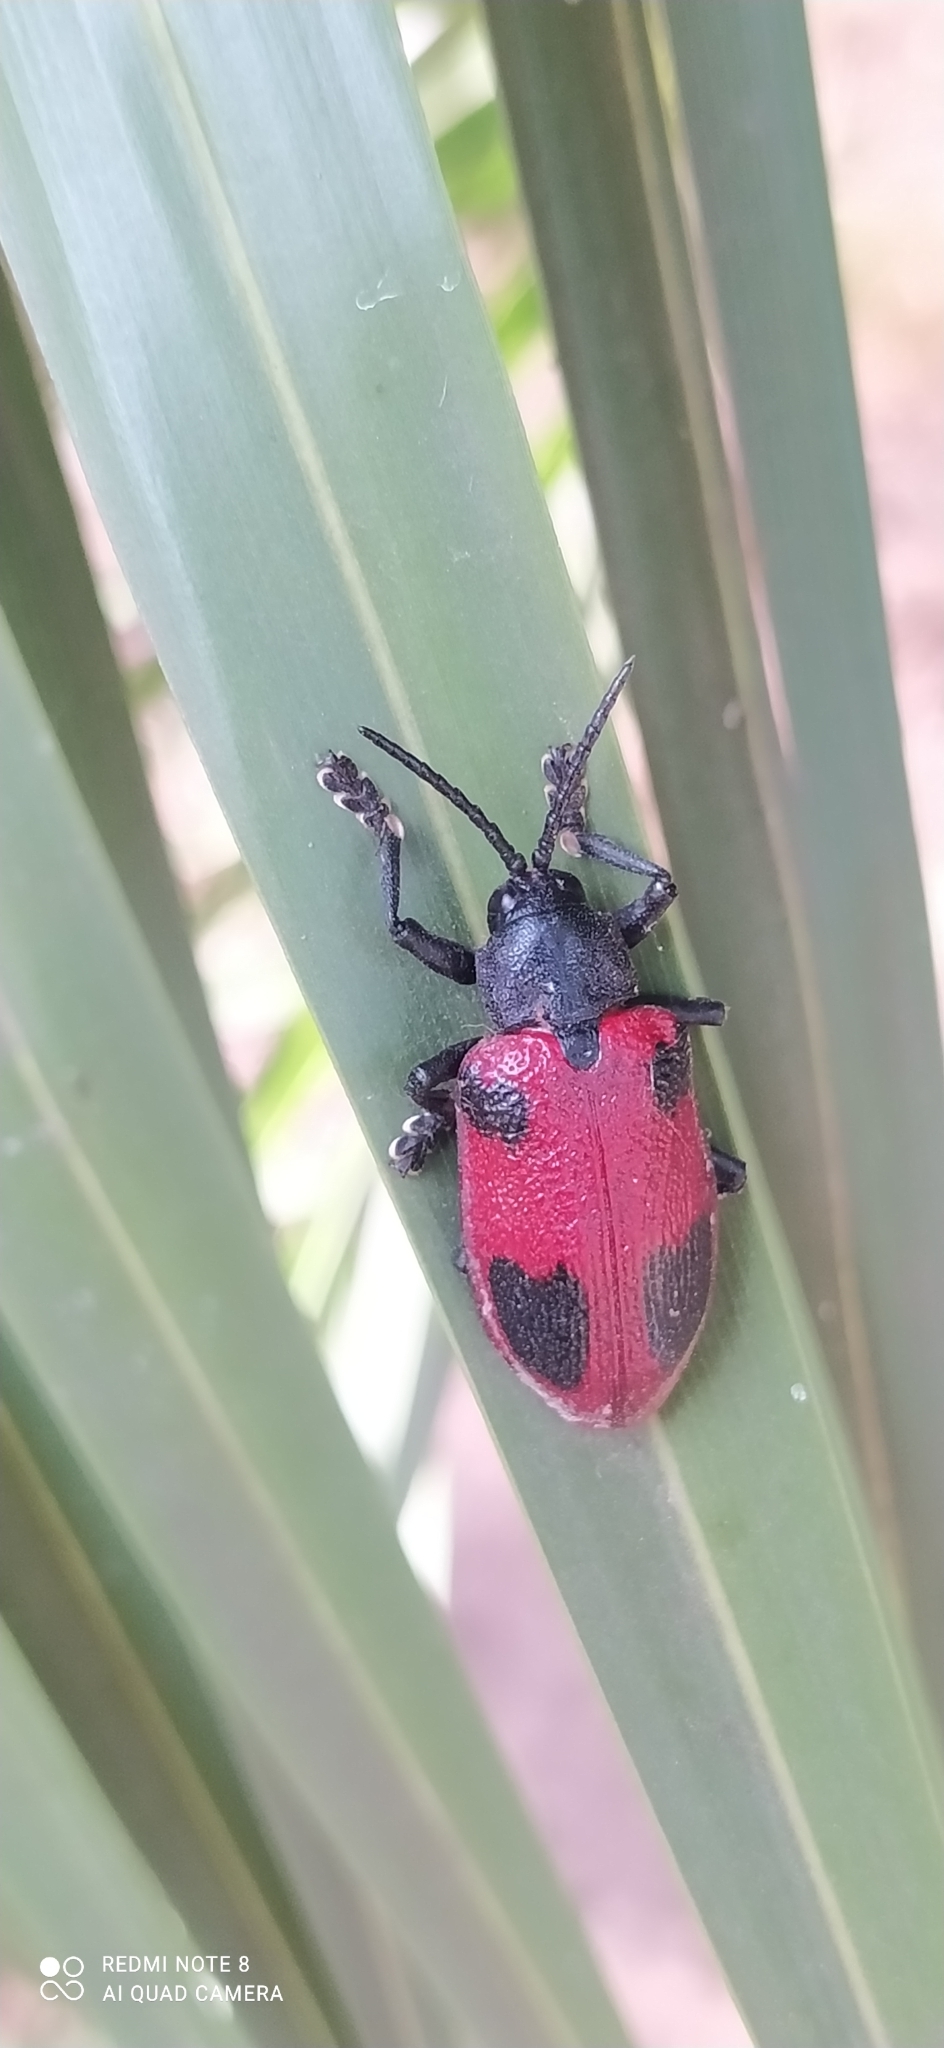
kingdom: Animalia
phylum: Arthropoda
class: Insecta
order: Coleoptera
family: Chrysomelidae
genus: Coraliomela
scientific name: Coraliomela quadrimaculata
